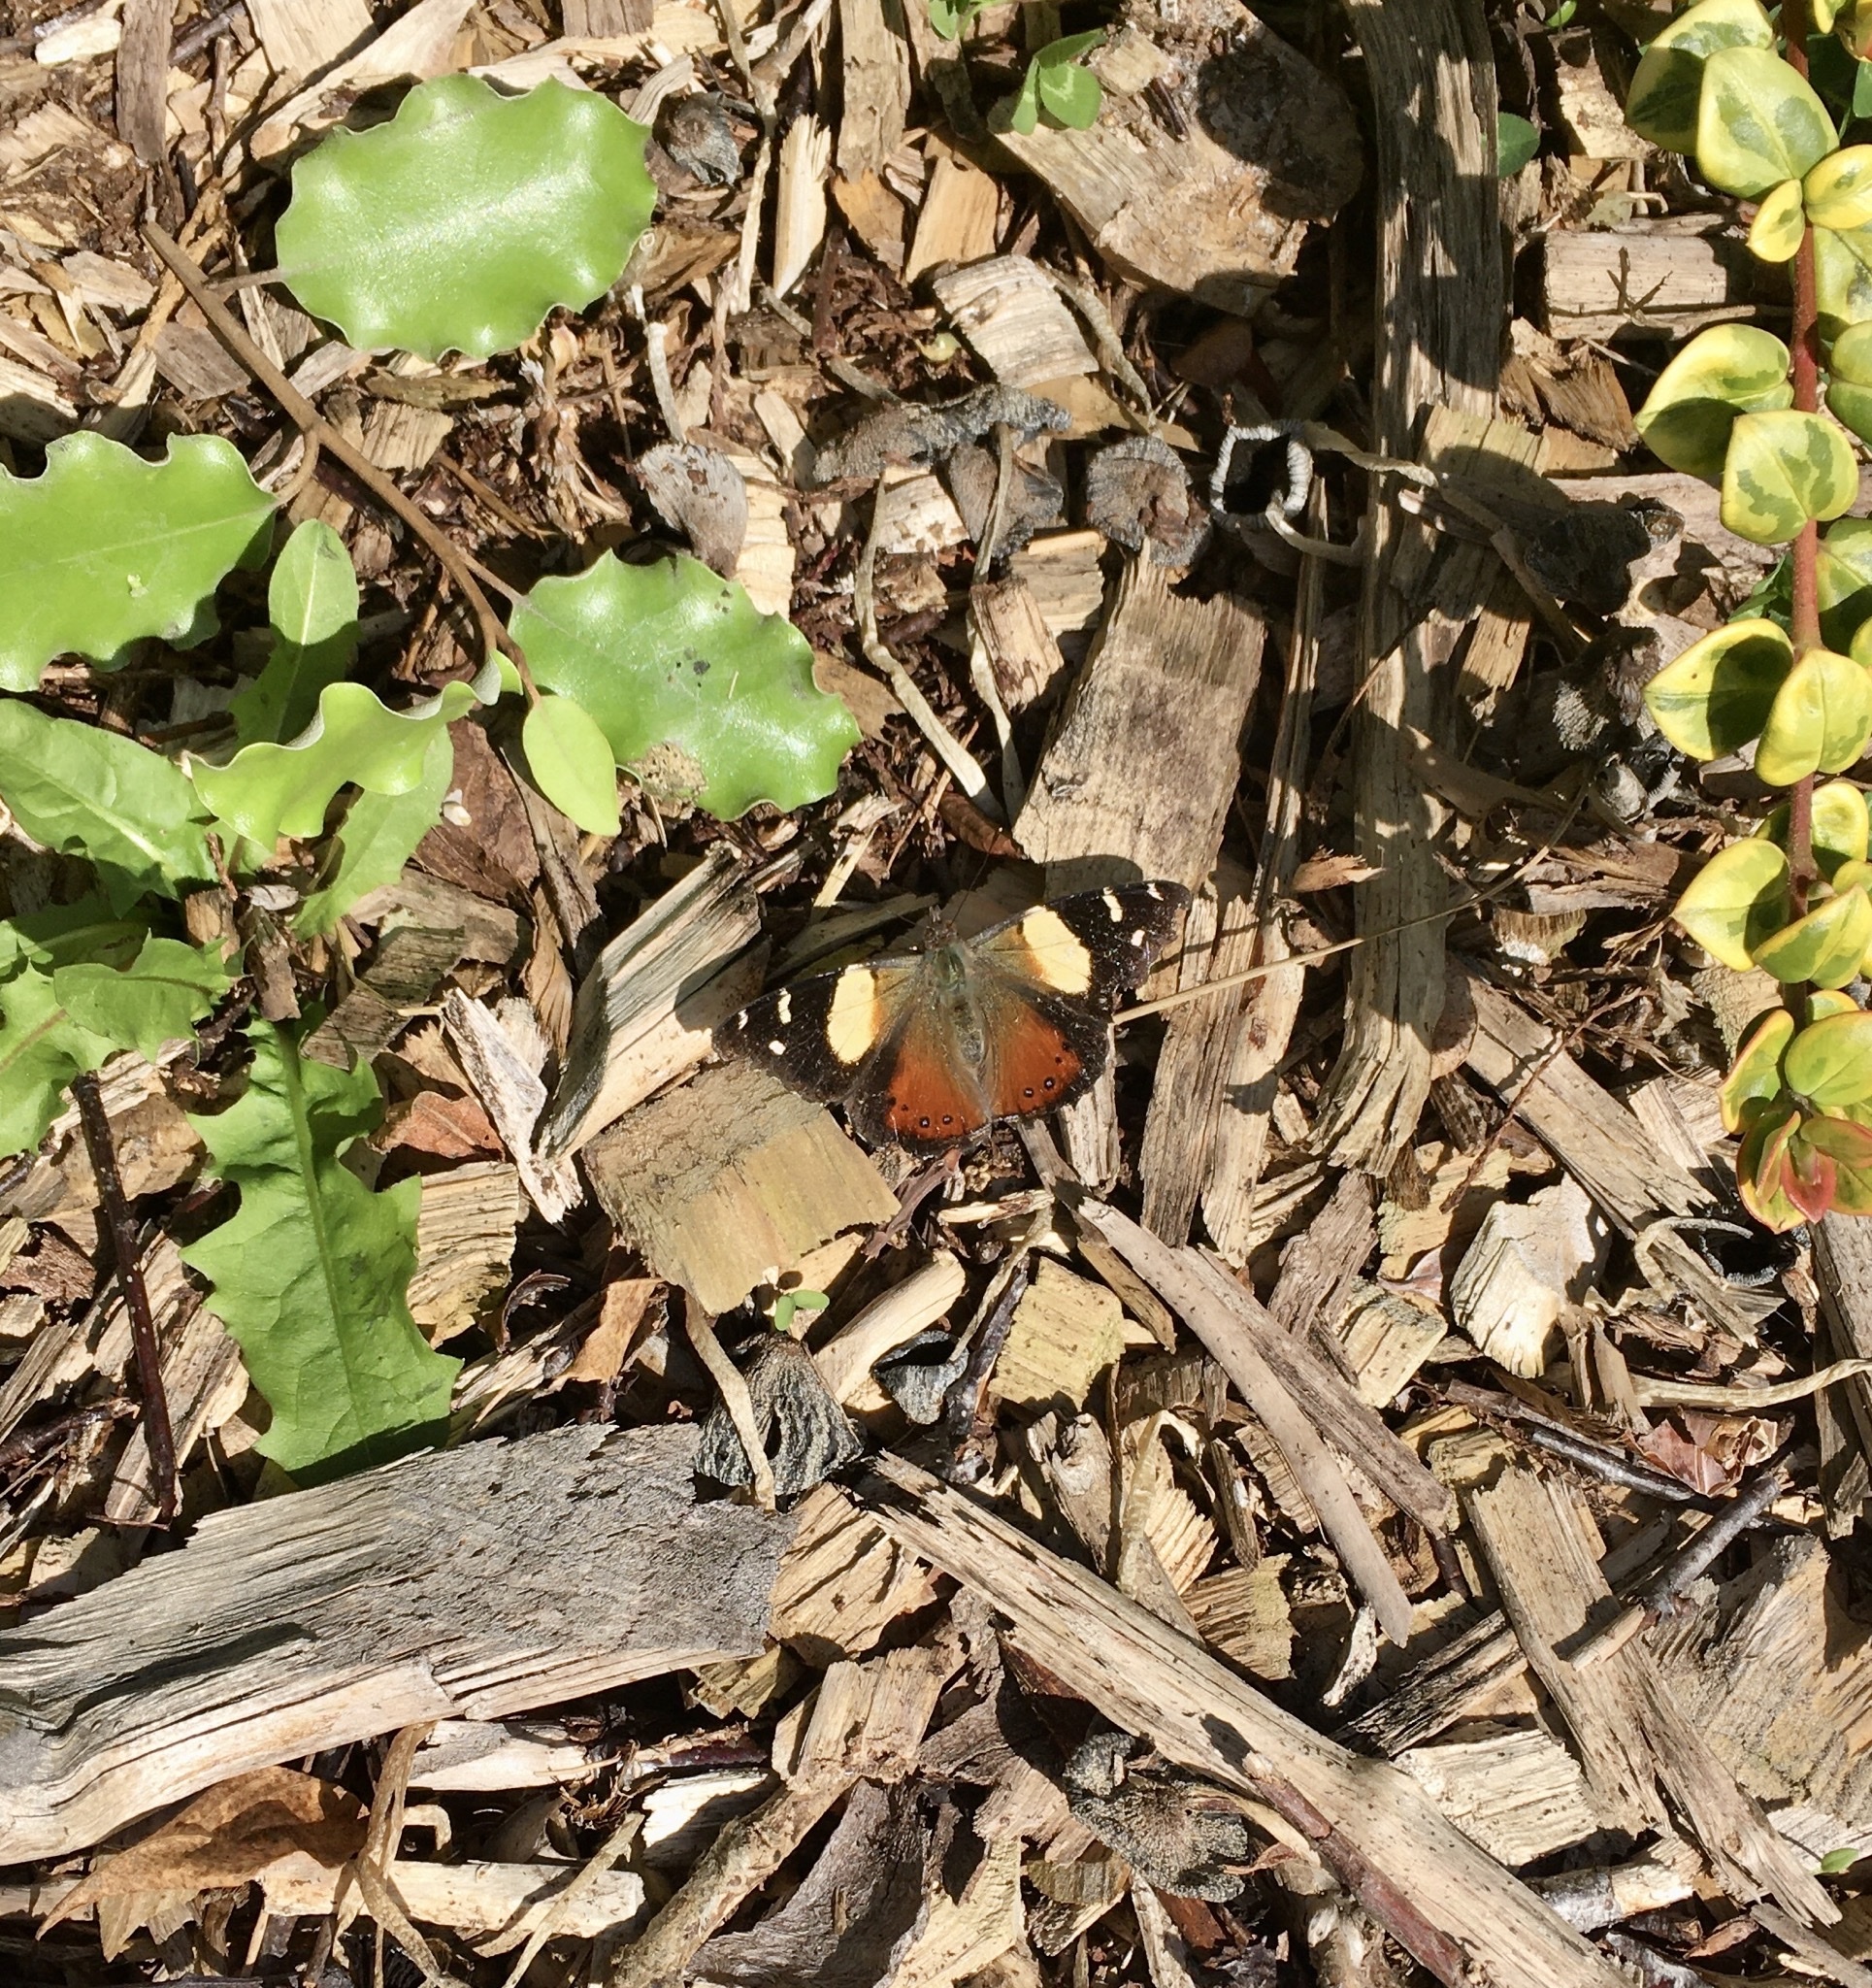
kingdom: Animalia
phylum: Arthropoda
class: Insecta
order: Lepidoptera
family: Nymphalidae
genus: Vanessa
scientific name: Vanessa itea
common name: Yellow admiral
